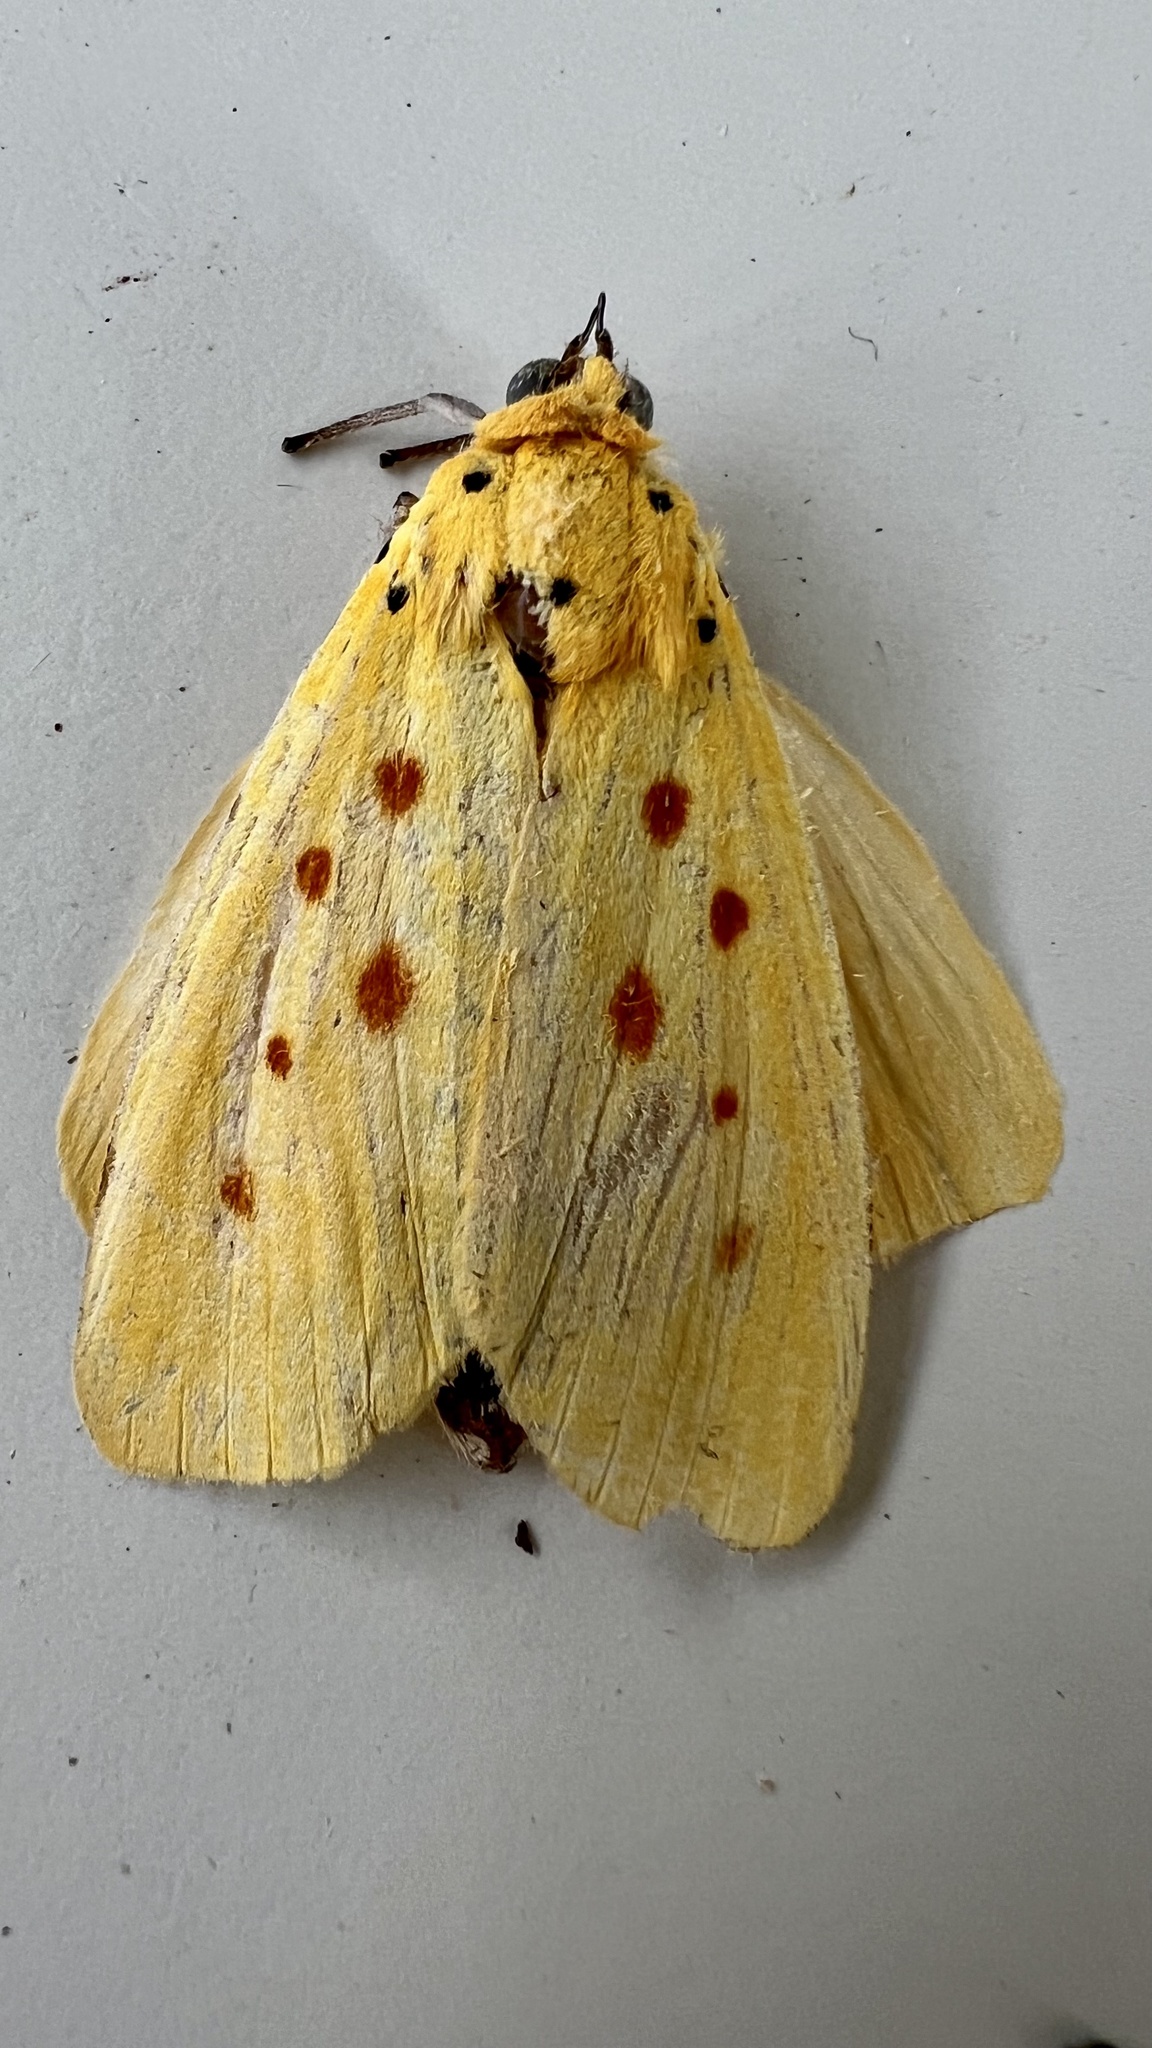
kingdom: Animalia
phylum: Arthropoda
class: Insecta
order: Lepidoptera
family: Noctuidae
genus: Agape
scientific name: Agape chloropyga
